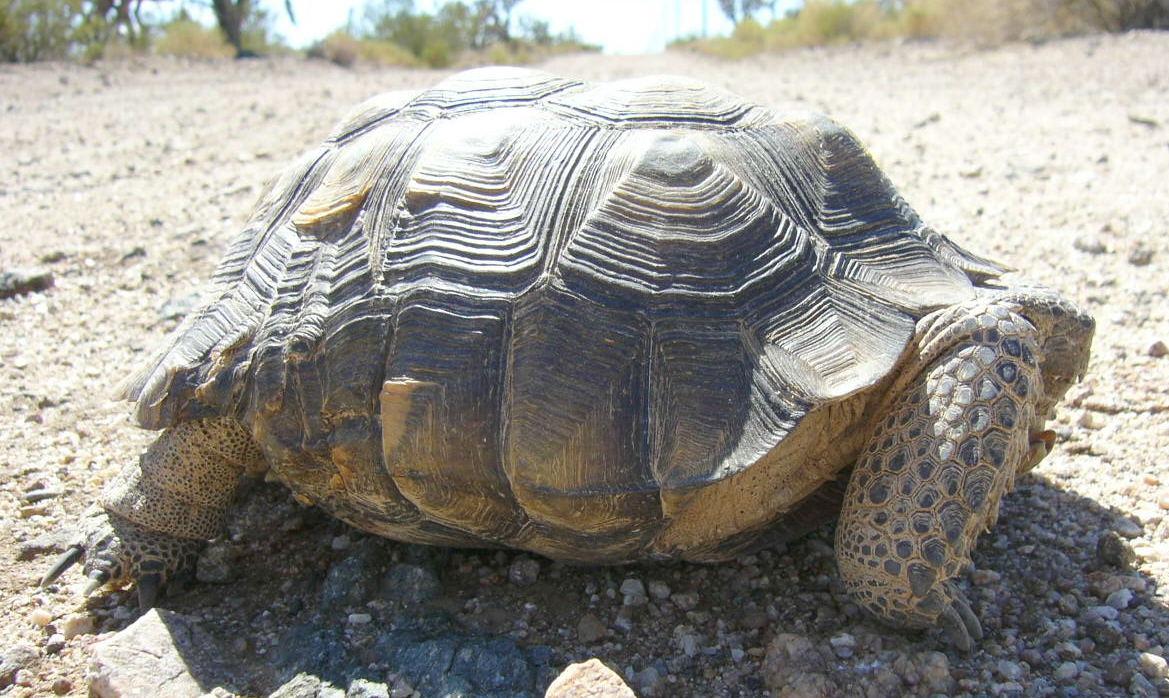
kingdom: Animalia
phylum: Chordata
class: Testudines
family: Testudinidae
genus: Gopherus
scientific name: Gopherus agassizii
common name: Mojave desert tortoise
